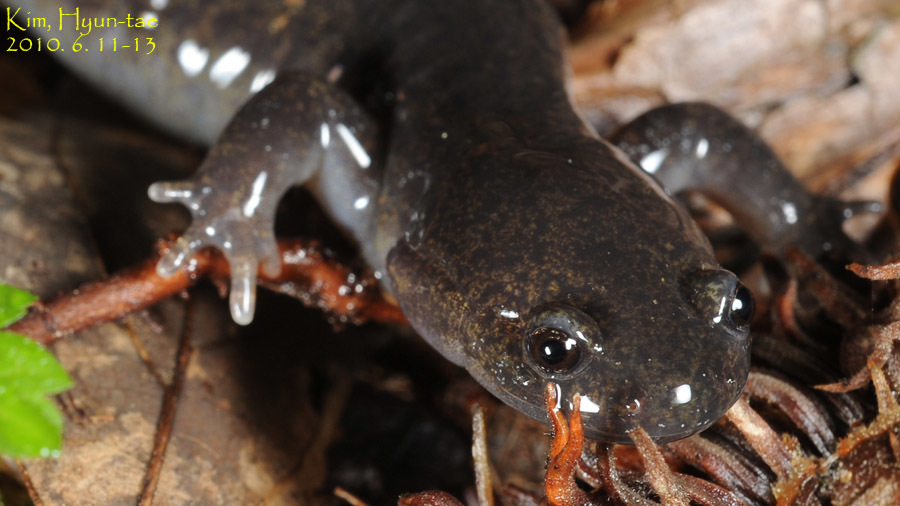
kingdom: Animalia
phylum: Chordata
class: Amphibia
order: Caudata
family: Hynobiidae
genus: Hynobius
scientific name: Hynobius leechii
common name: Gensan salamander
